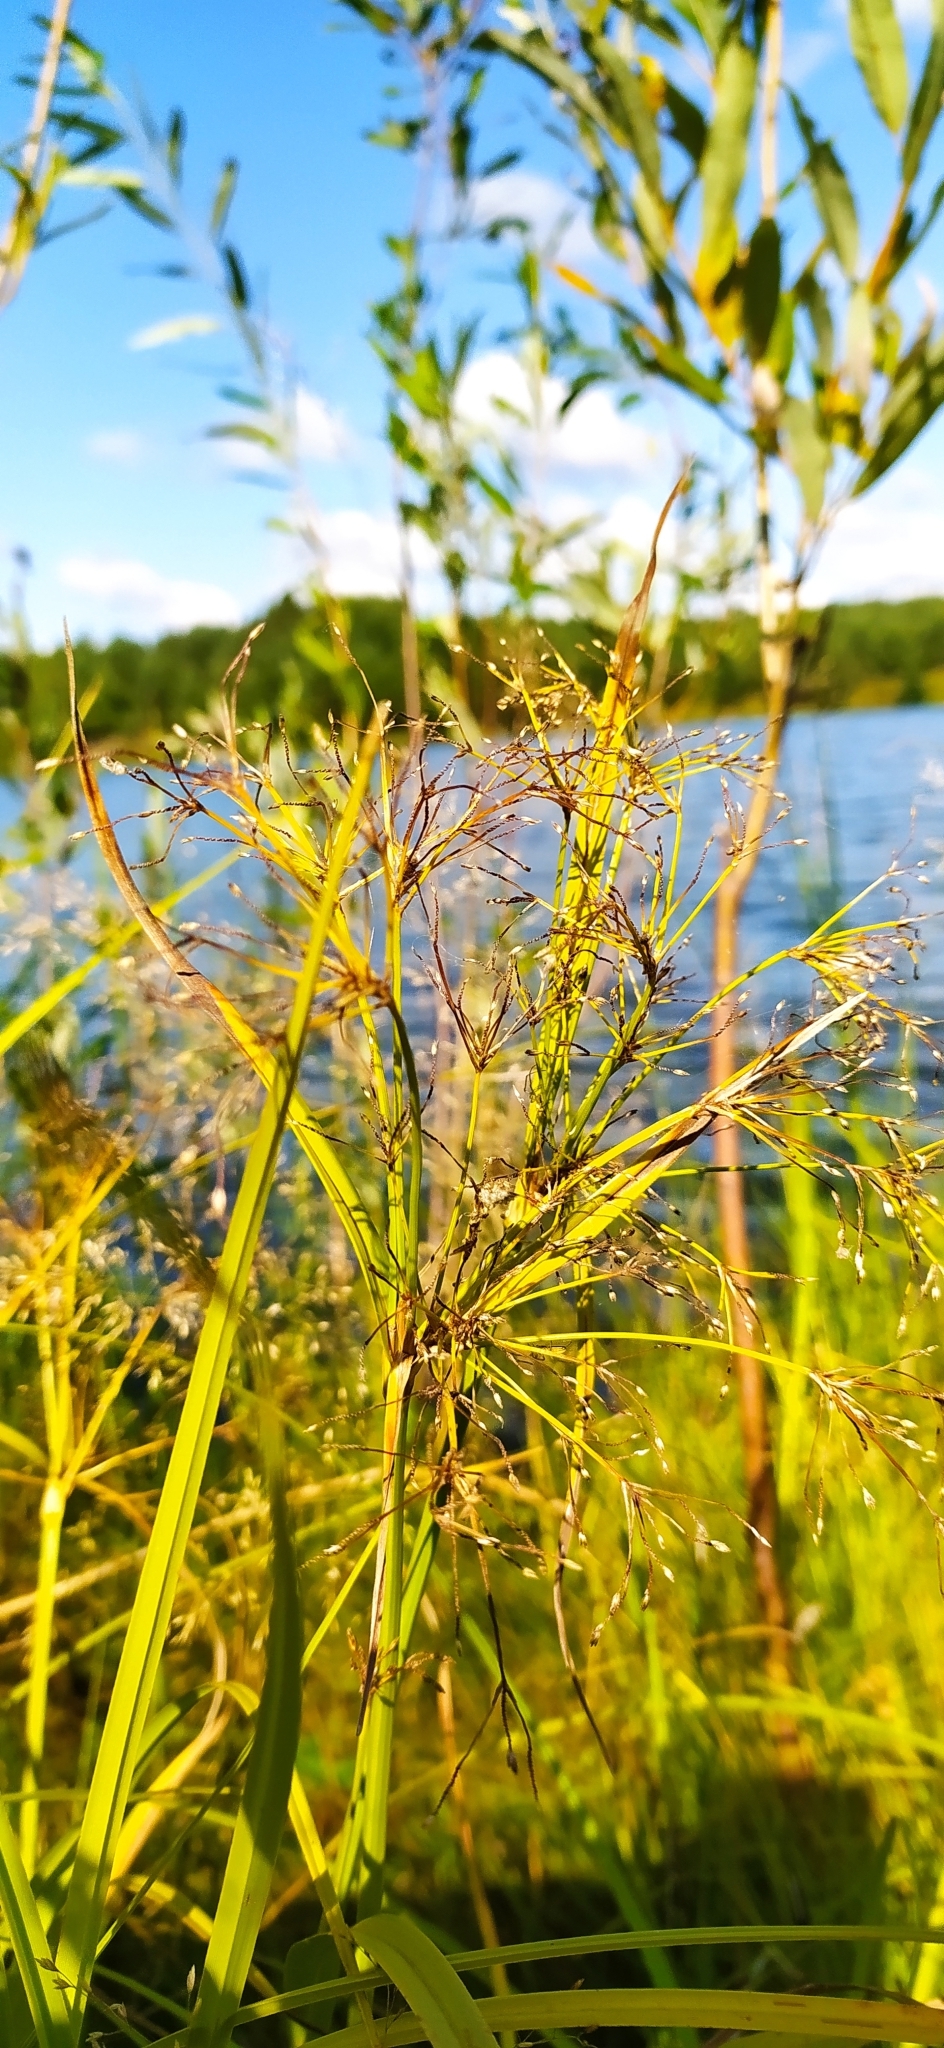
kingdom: Plantae
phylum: Tracheophyta
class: Liliopsida
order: Poales
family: Cyperaceae
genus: Scirpus
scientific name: Scirpus radicans
